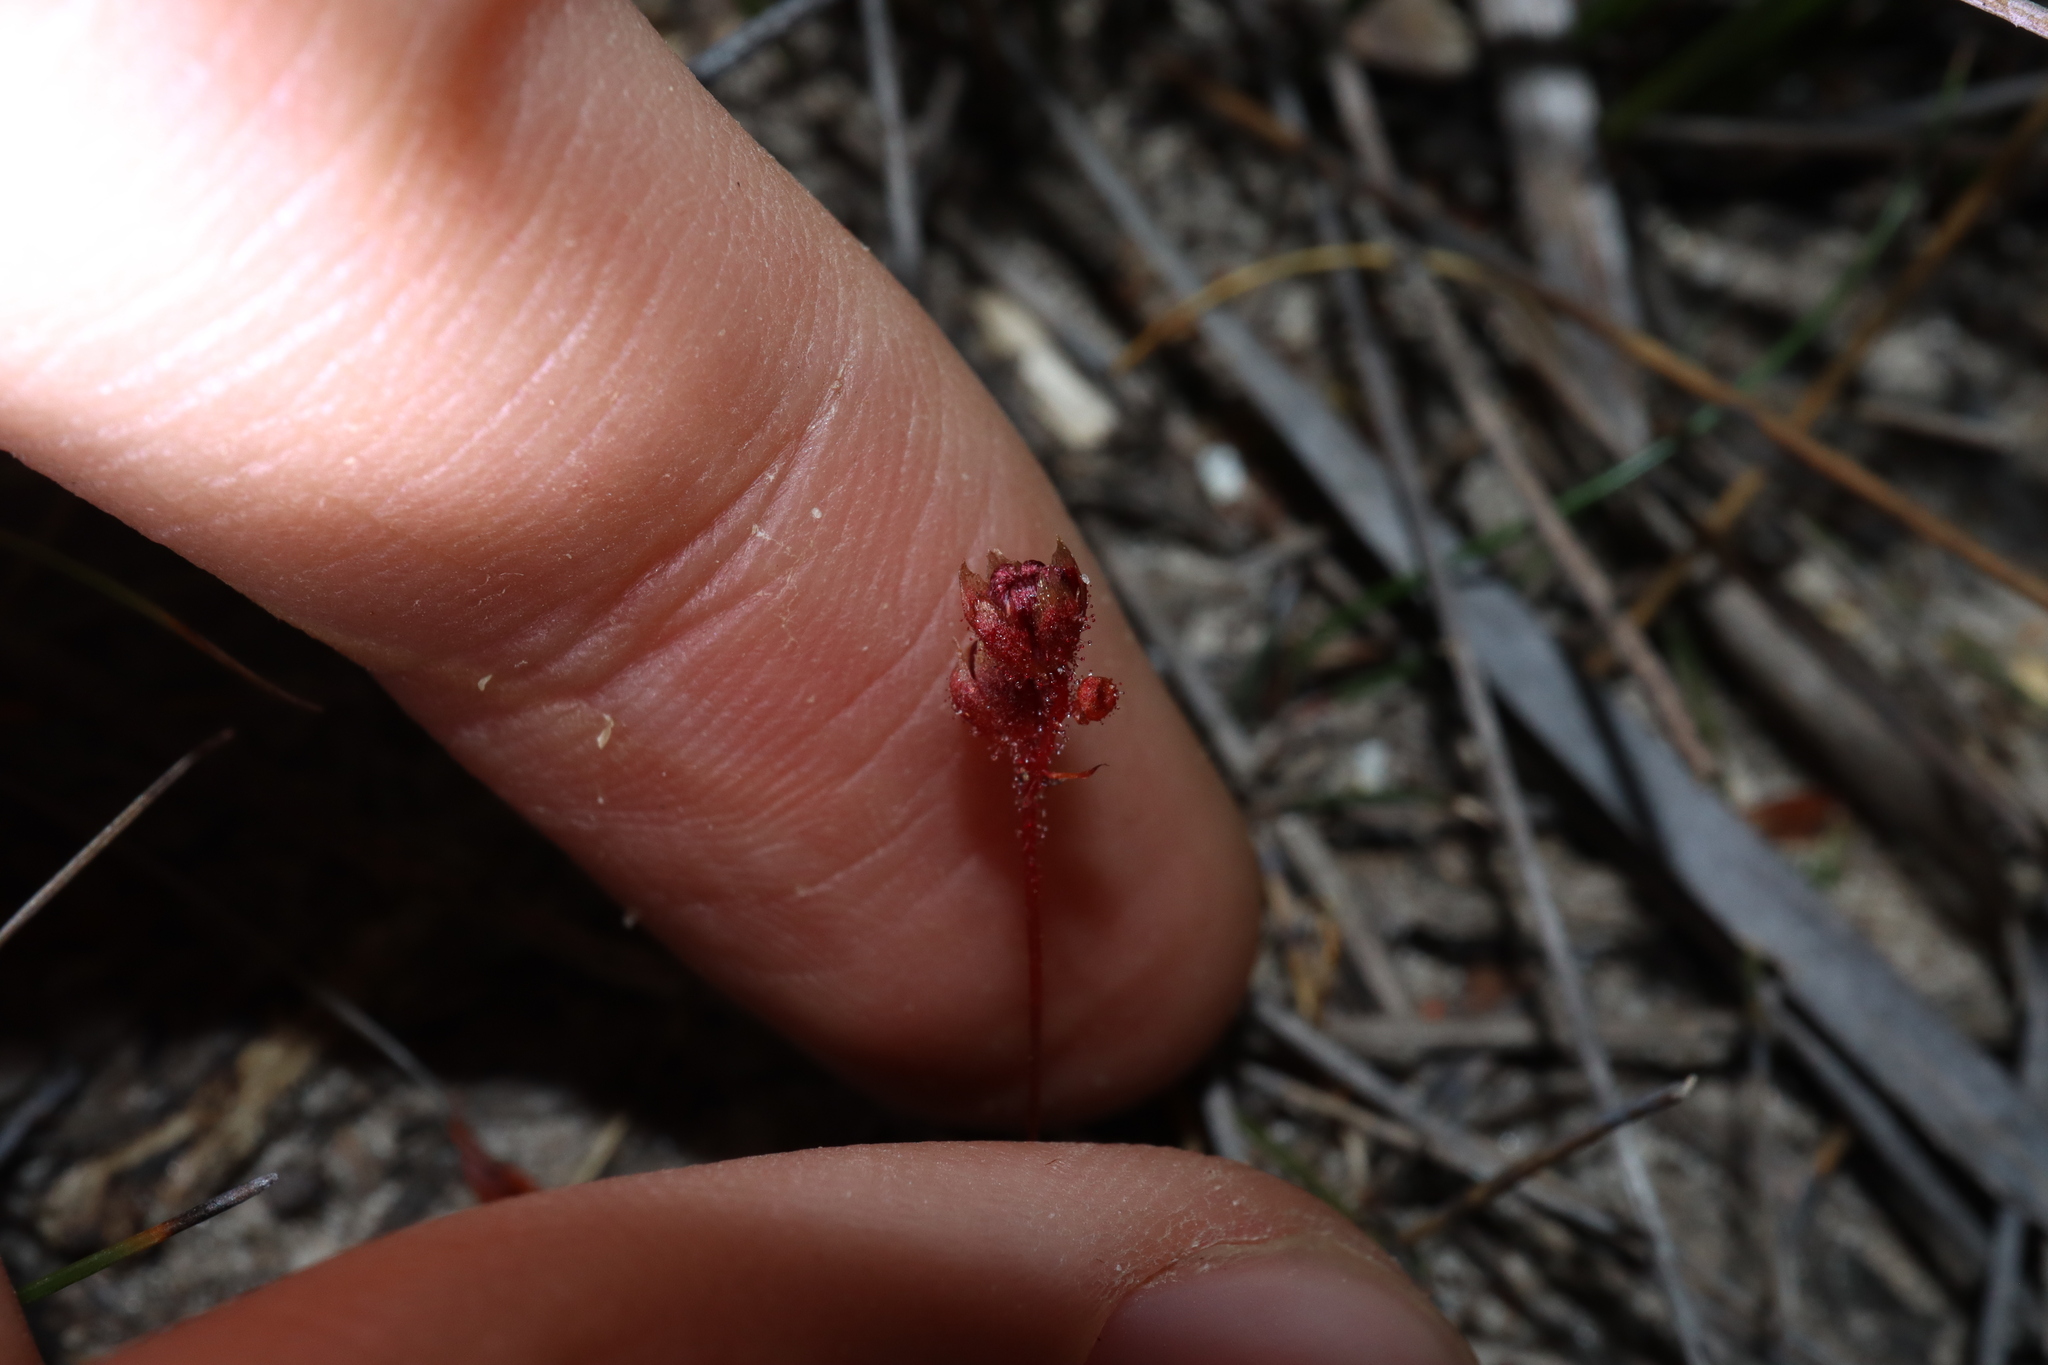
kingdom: Plantae
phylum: Tracheophyta
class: Magnoliopsida
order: Caryophyllales
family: Droseraceae
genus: Drosera
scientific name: Drosera platystigma
